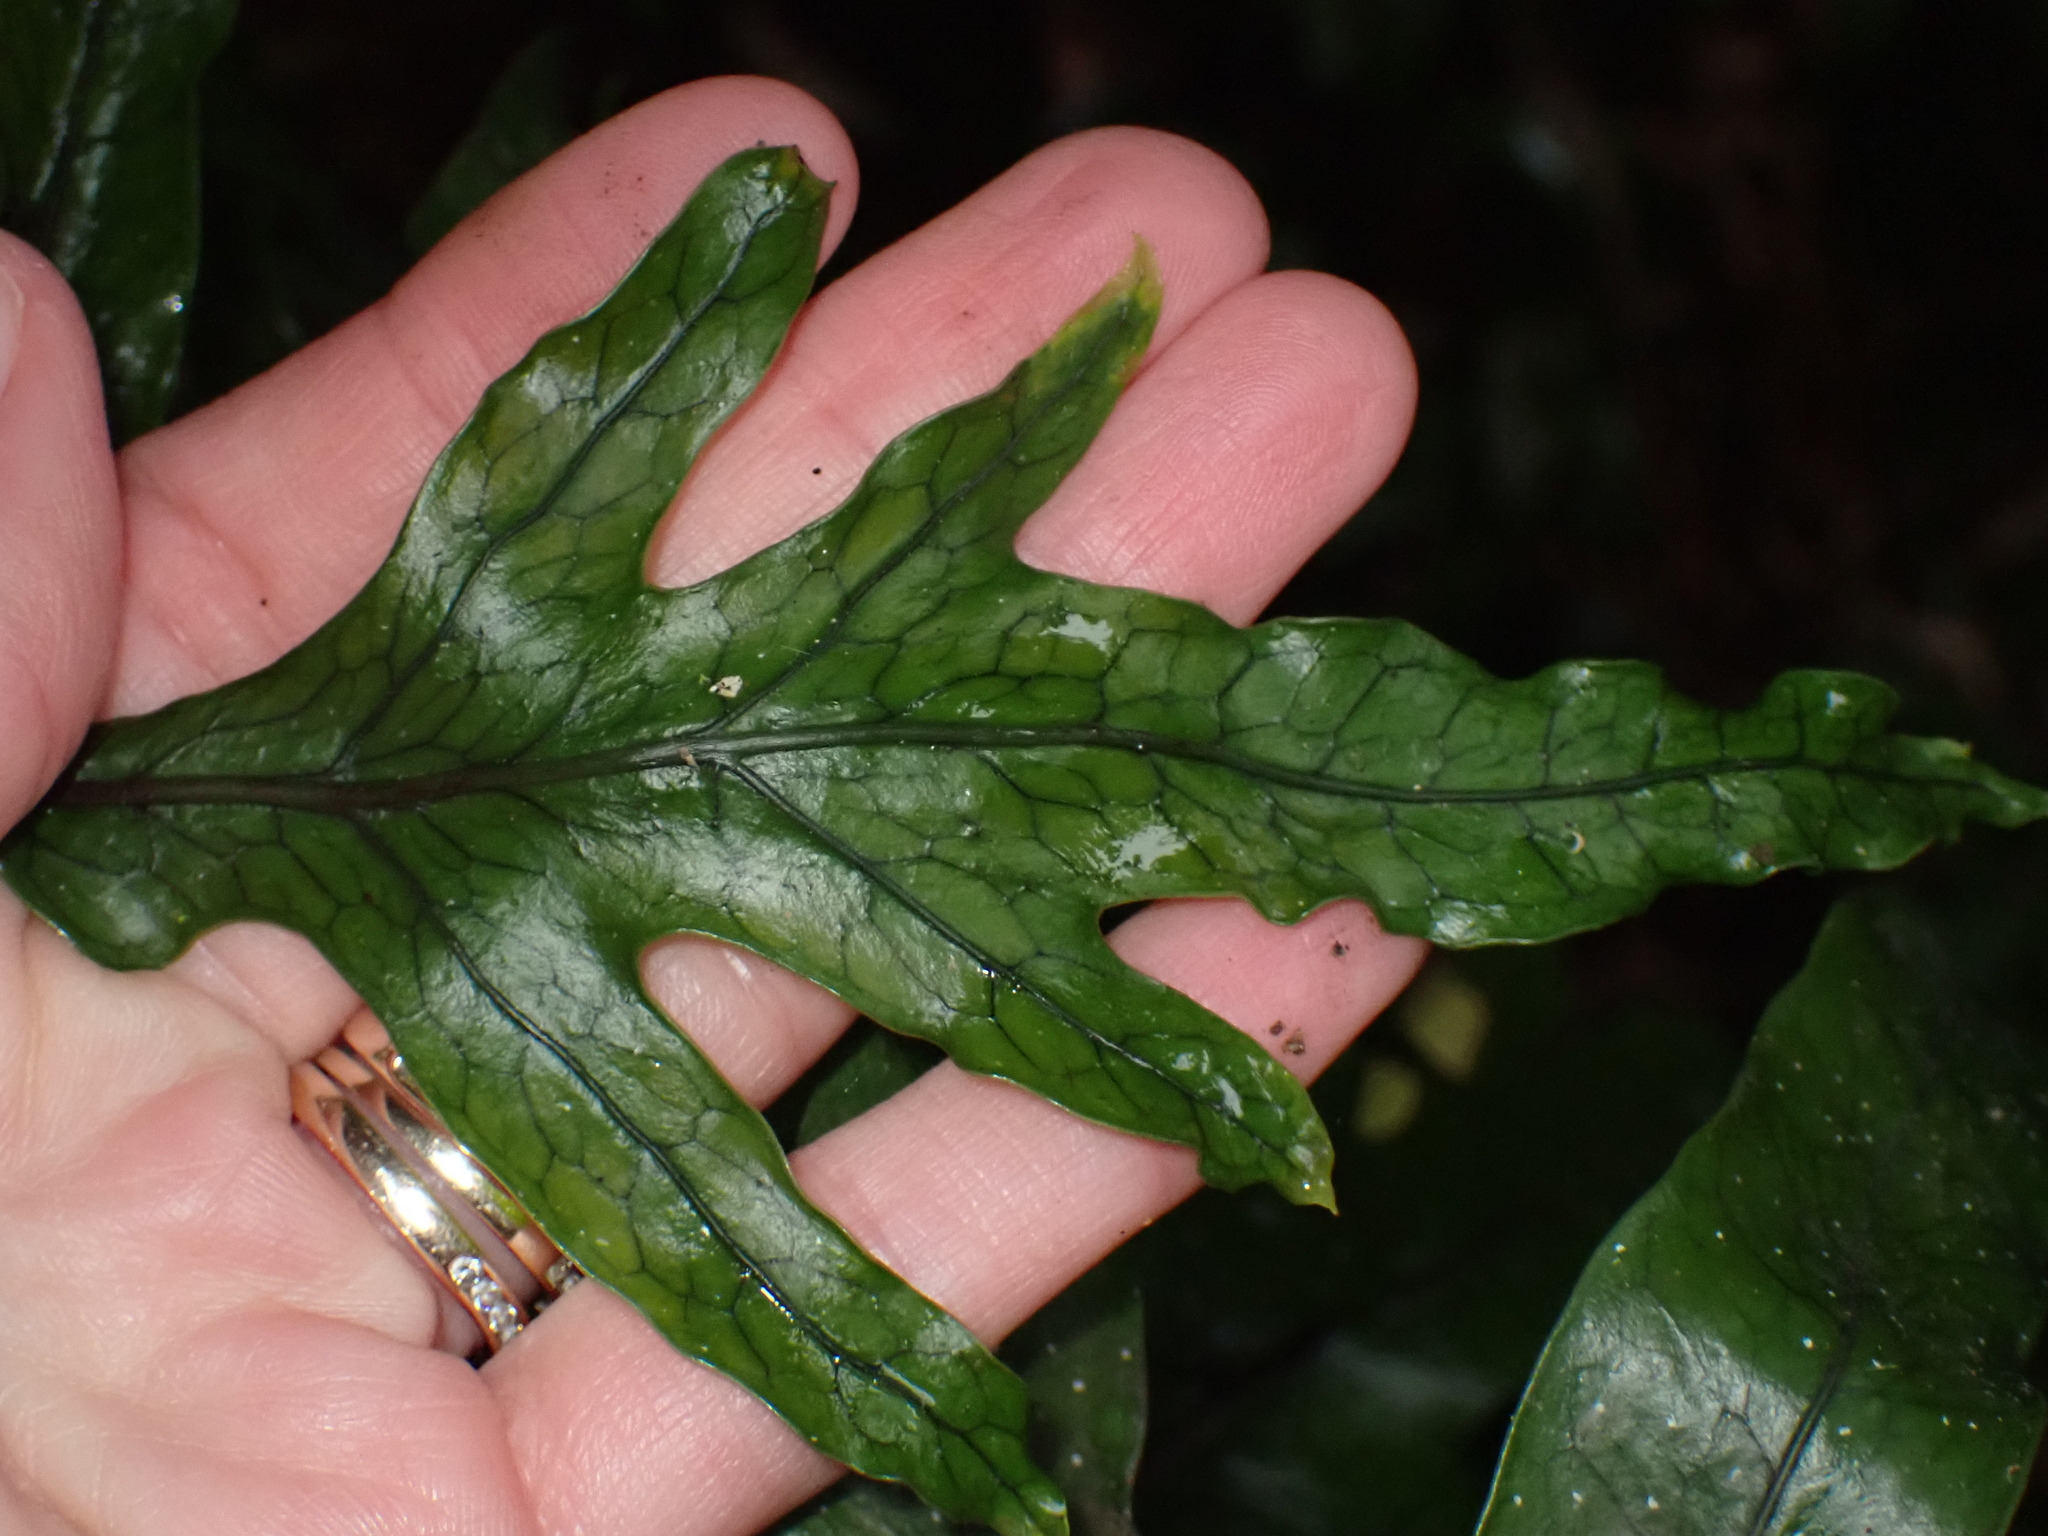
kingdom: Plantae
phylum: Tracheophyta
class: Polypodiopsida
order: Polypodiales
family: Polypodiaceae
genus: Lecanopteris
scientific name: Lecanopteris pustulata
